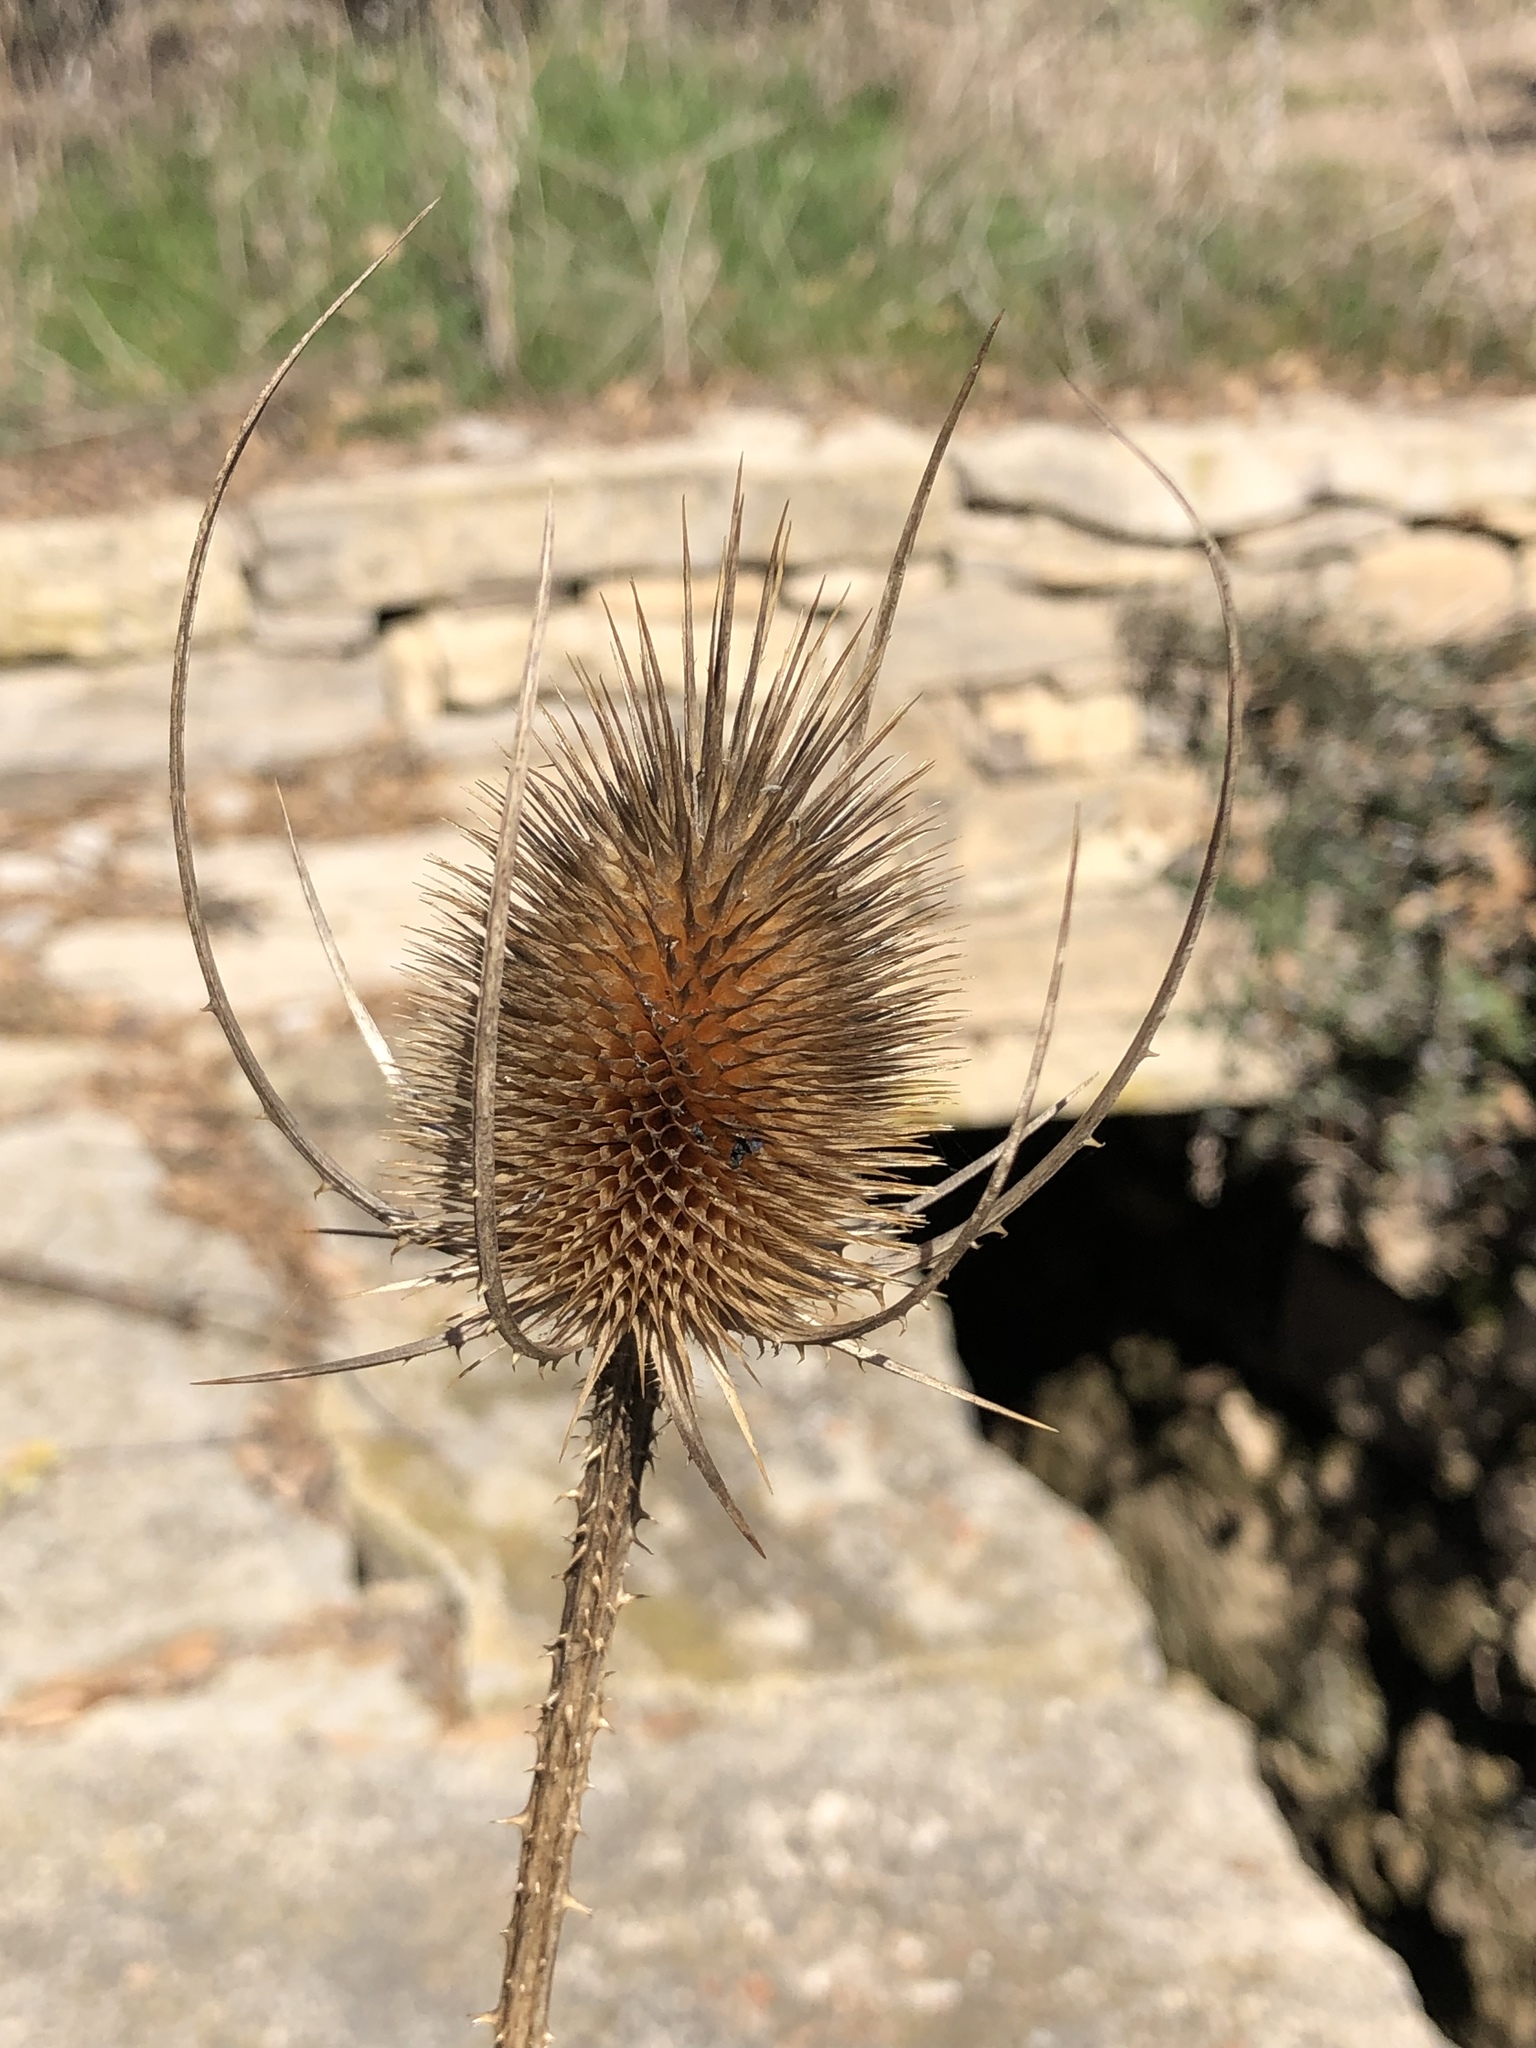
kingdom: Plantae
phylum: Tracheophyta
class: Magnoliopsida
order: Dipsacales
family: Caprifoliaceae
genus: Dipsacus
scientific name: Dipsacus fullonum
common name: Teasel
